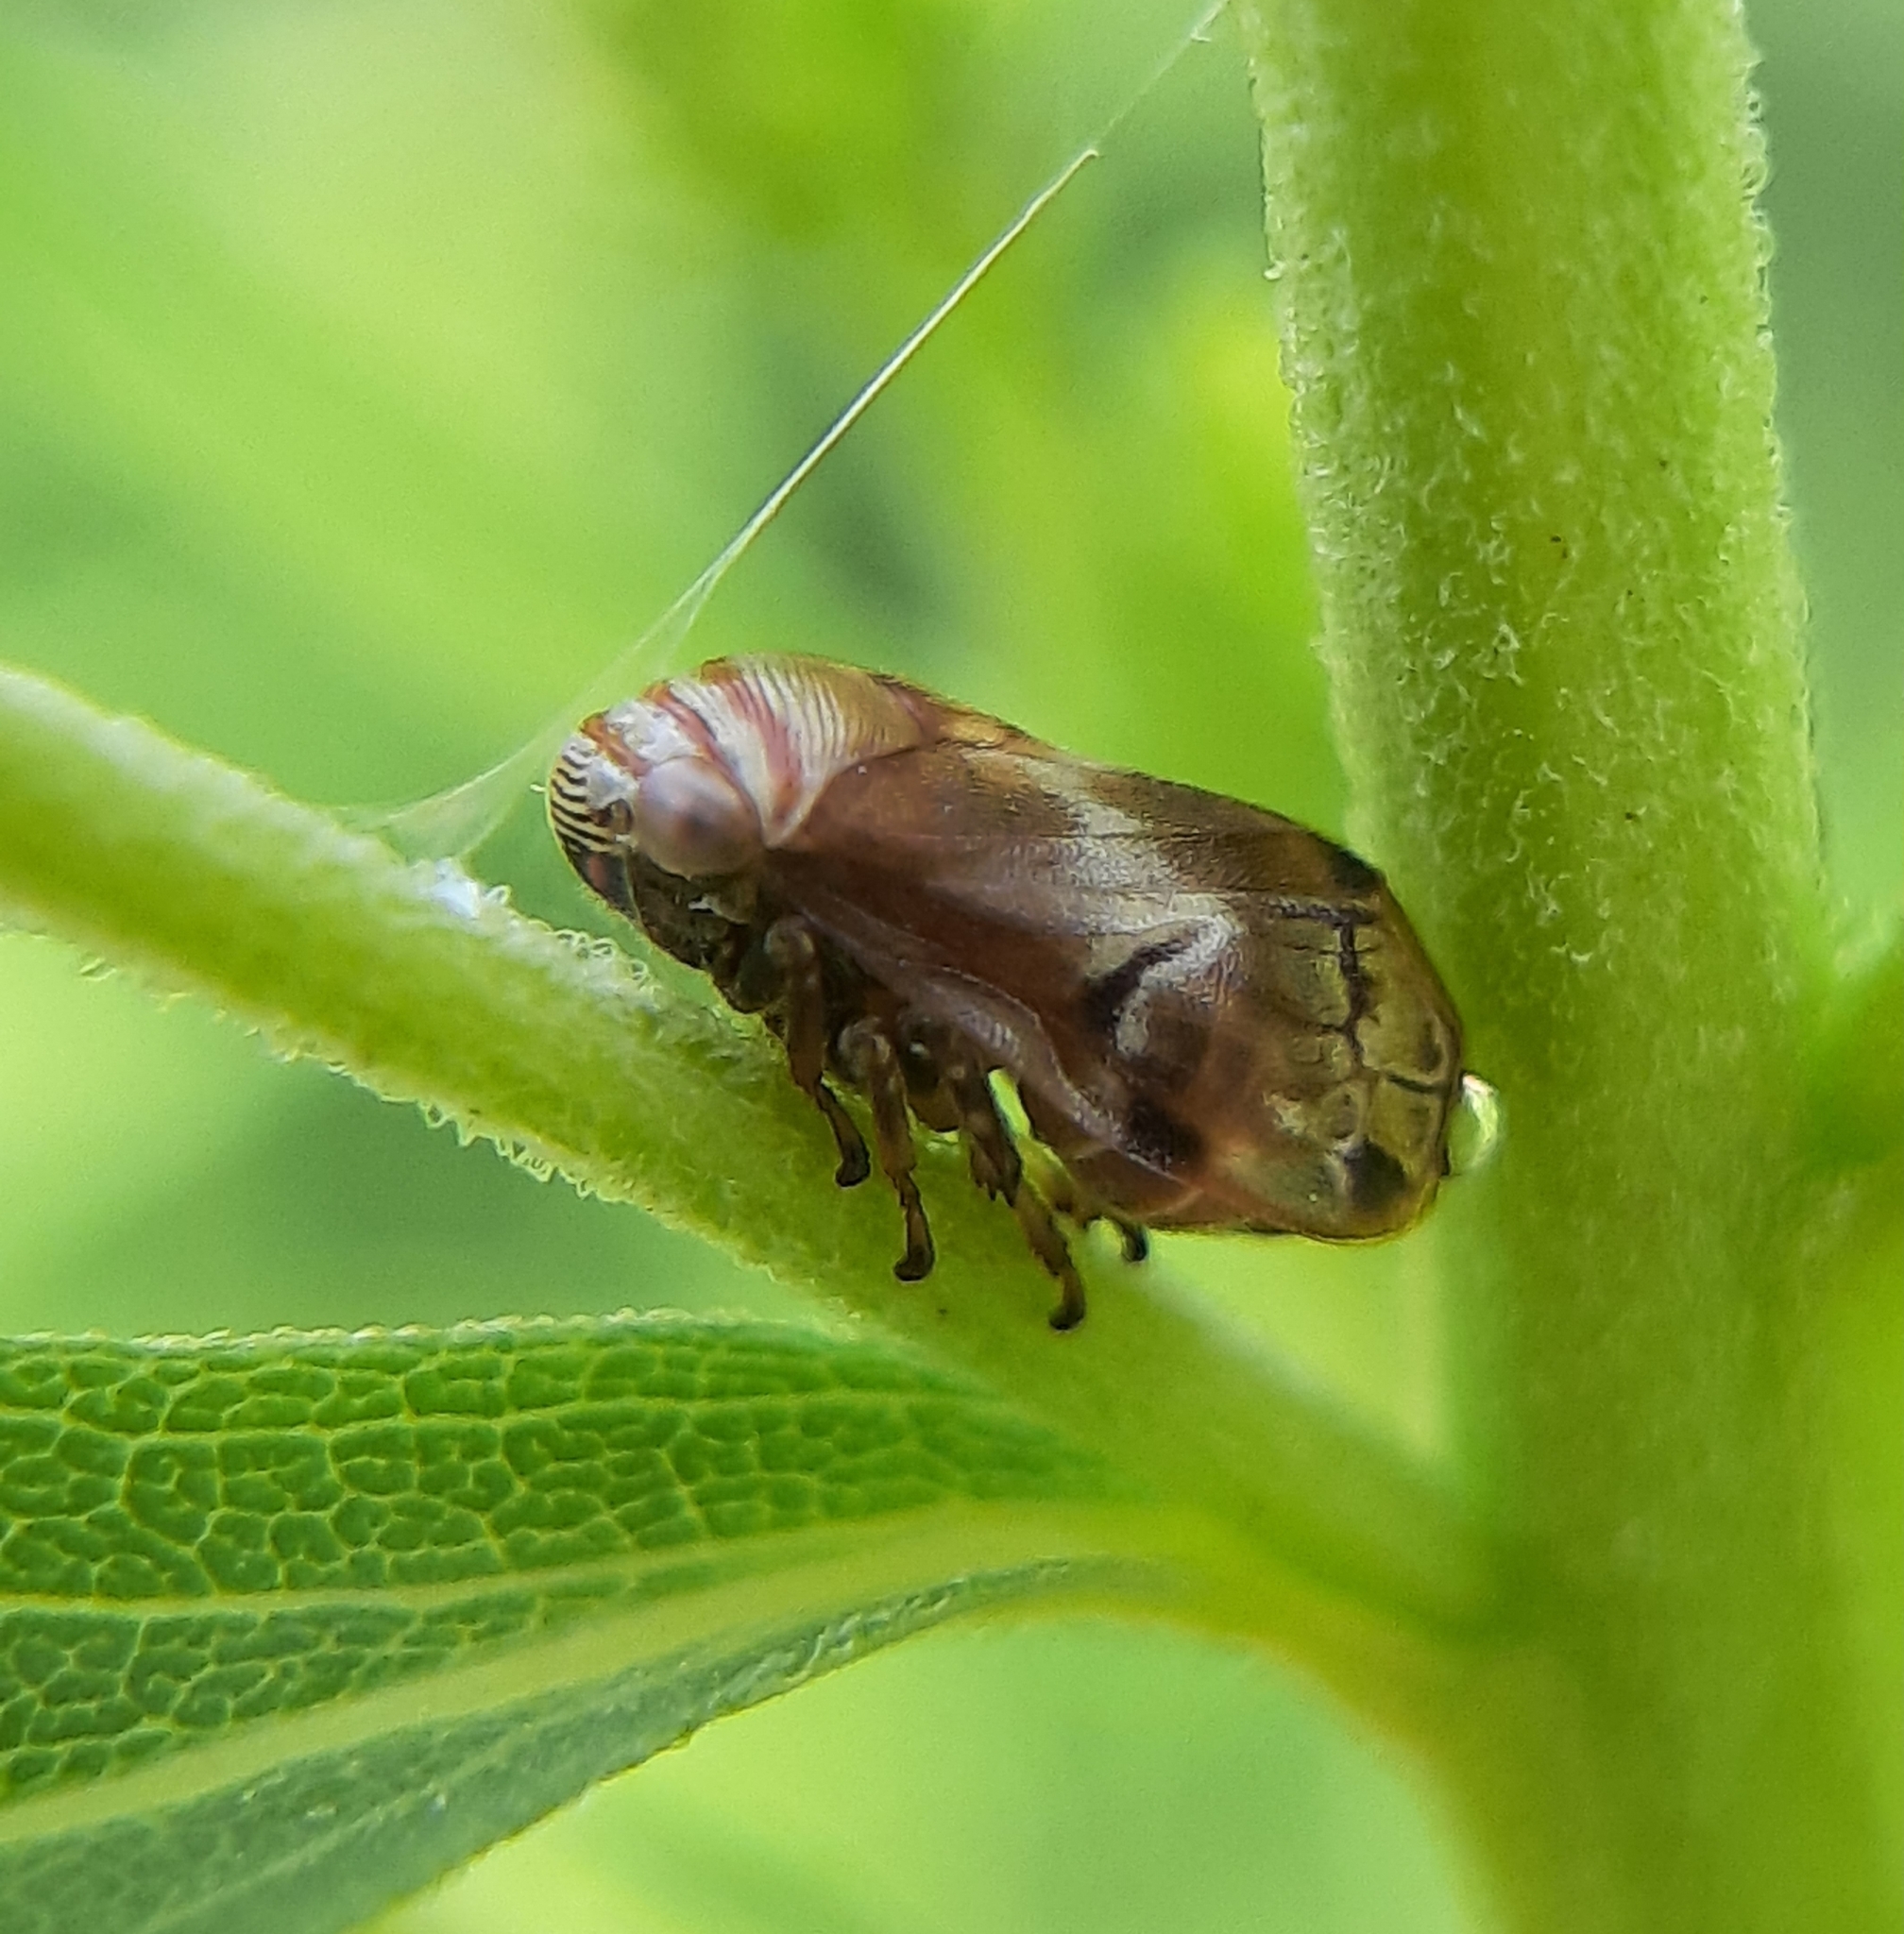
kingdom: Animalia
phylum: Arthropoda
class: Insecta
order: Hemiptera
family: Clastopteridae
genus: Clastoptera
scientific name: Clastoptera obtusa
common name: Alder spittlebug
